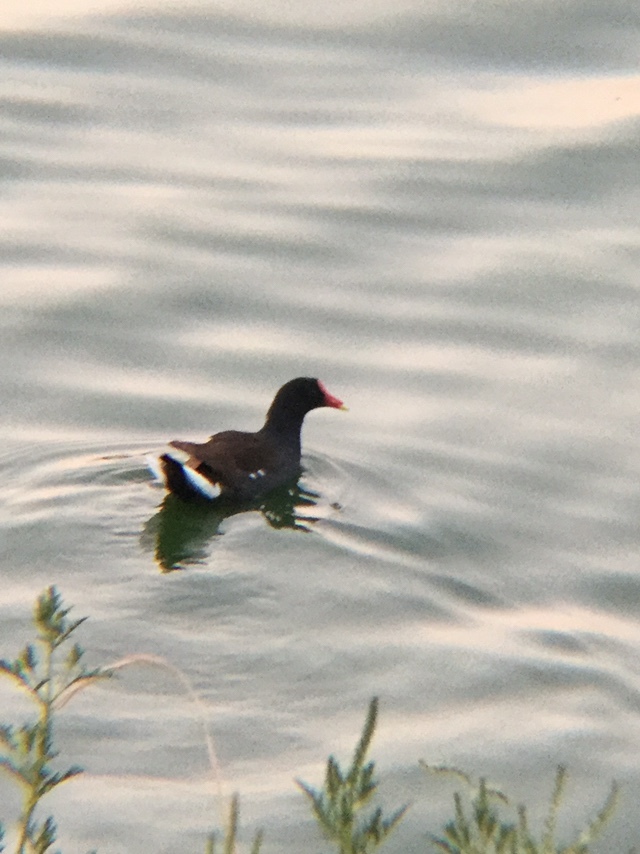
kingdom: Animalia
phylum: Chordata
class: Aves
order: Gruiformes
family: Rallidae
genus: Gallinula
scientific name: Gallinula chloropus
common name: Common moorhen
